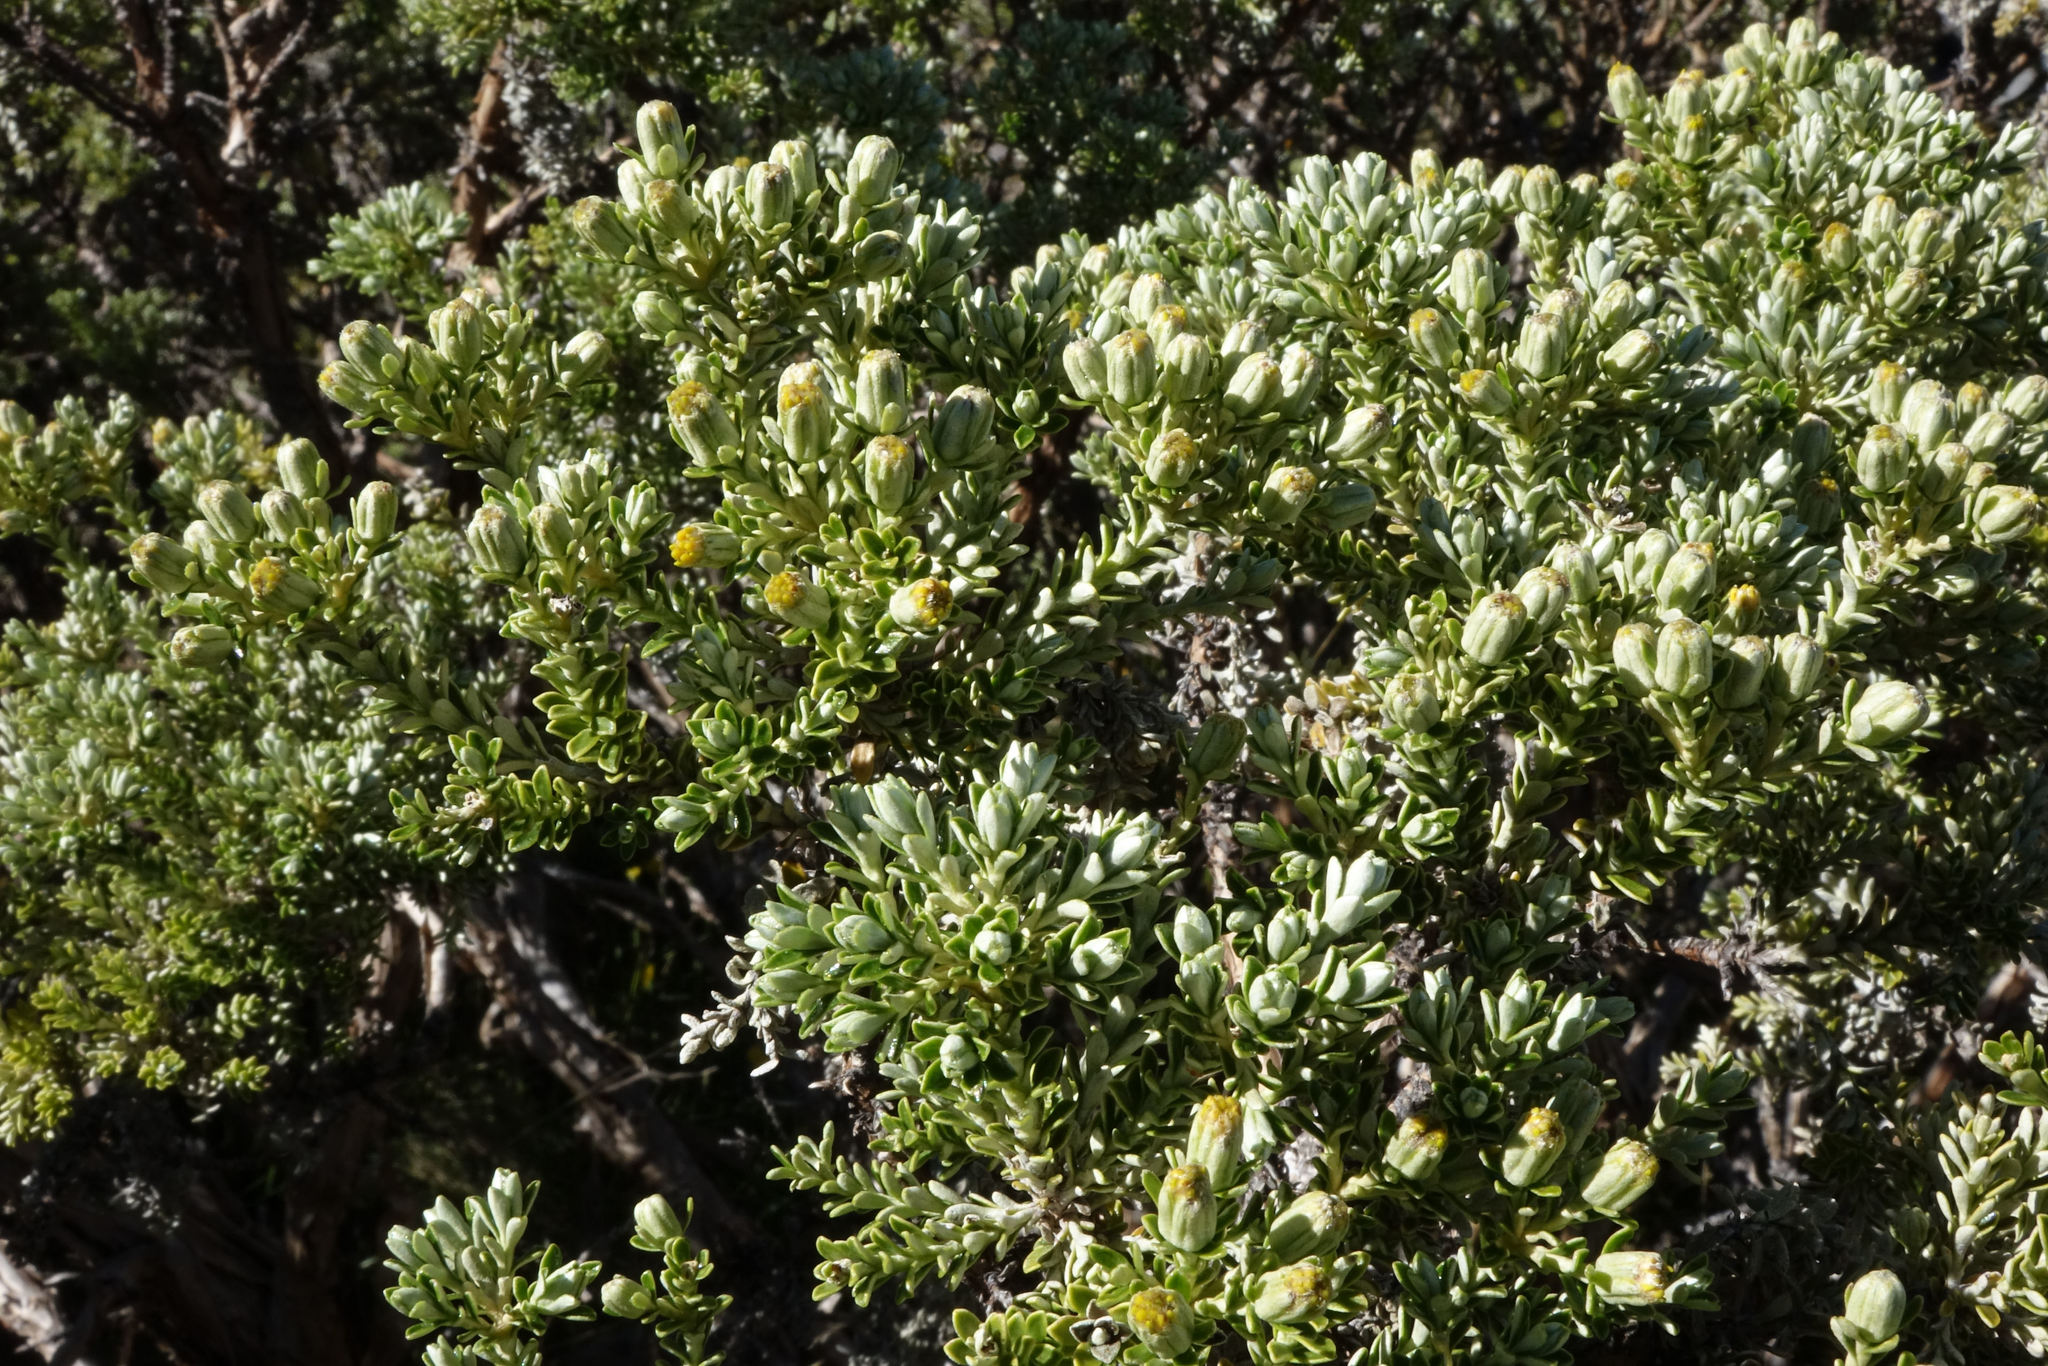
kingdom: Plantae
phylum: Tracheophyta
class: Magnoliopsida
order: Asterales
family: Asteraceae
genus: Brachyglottis
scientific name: Brachyglottis cassinioides
